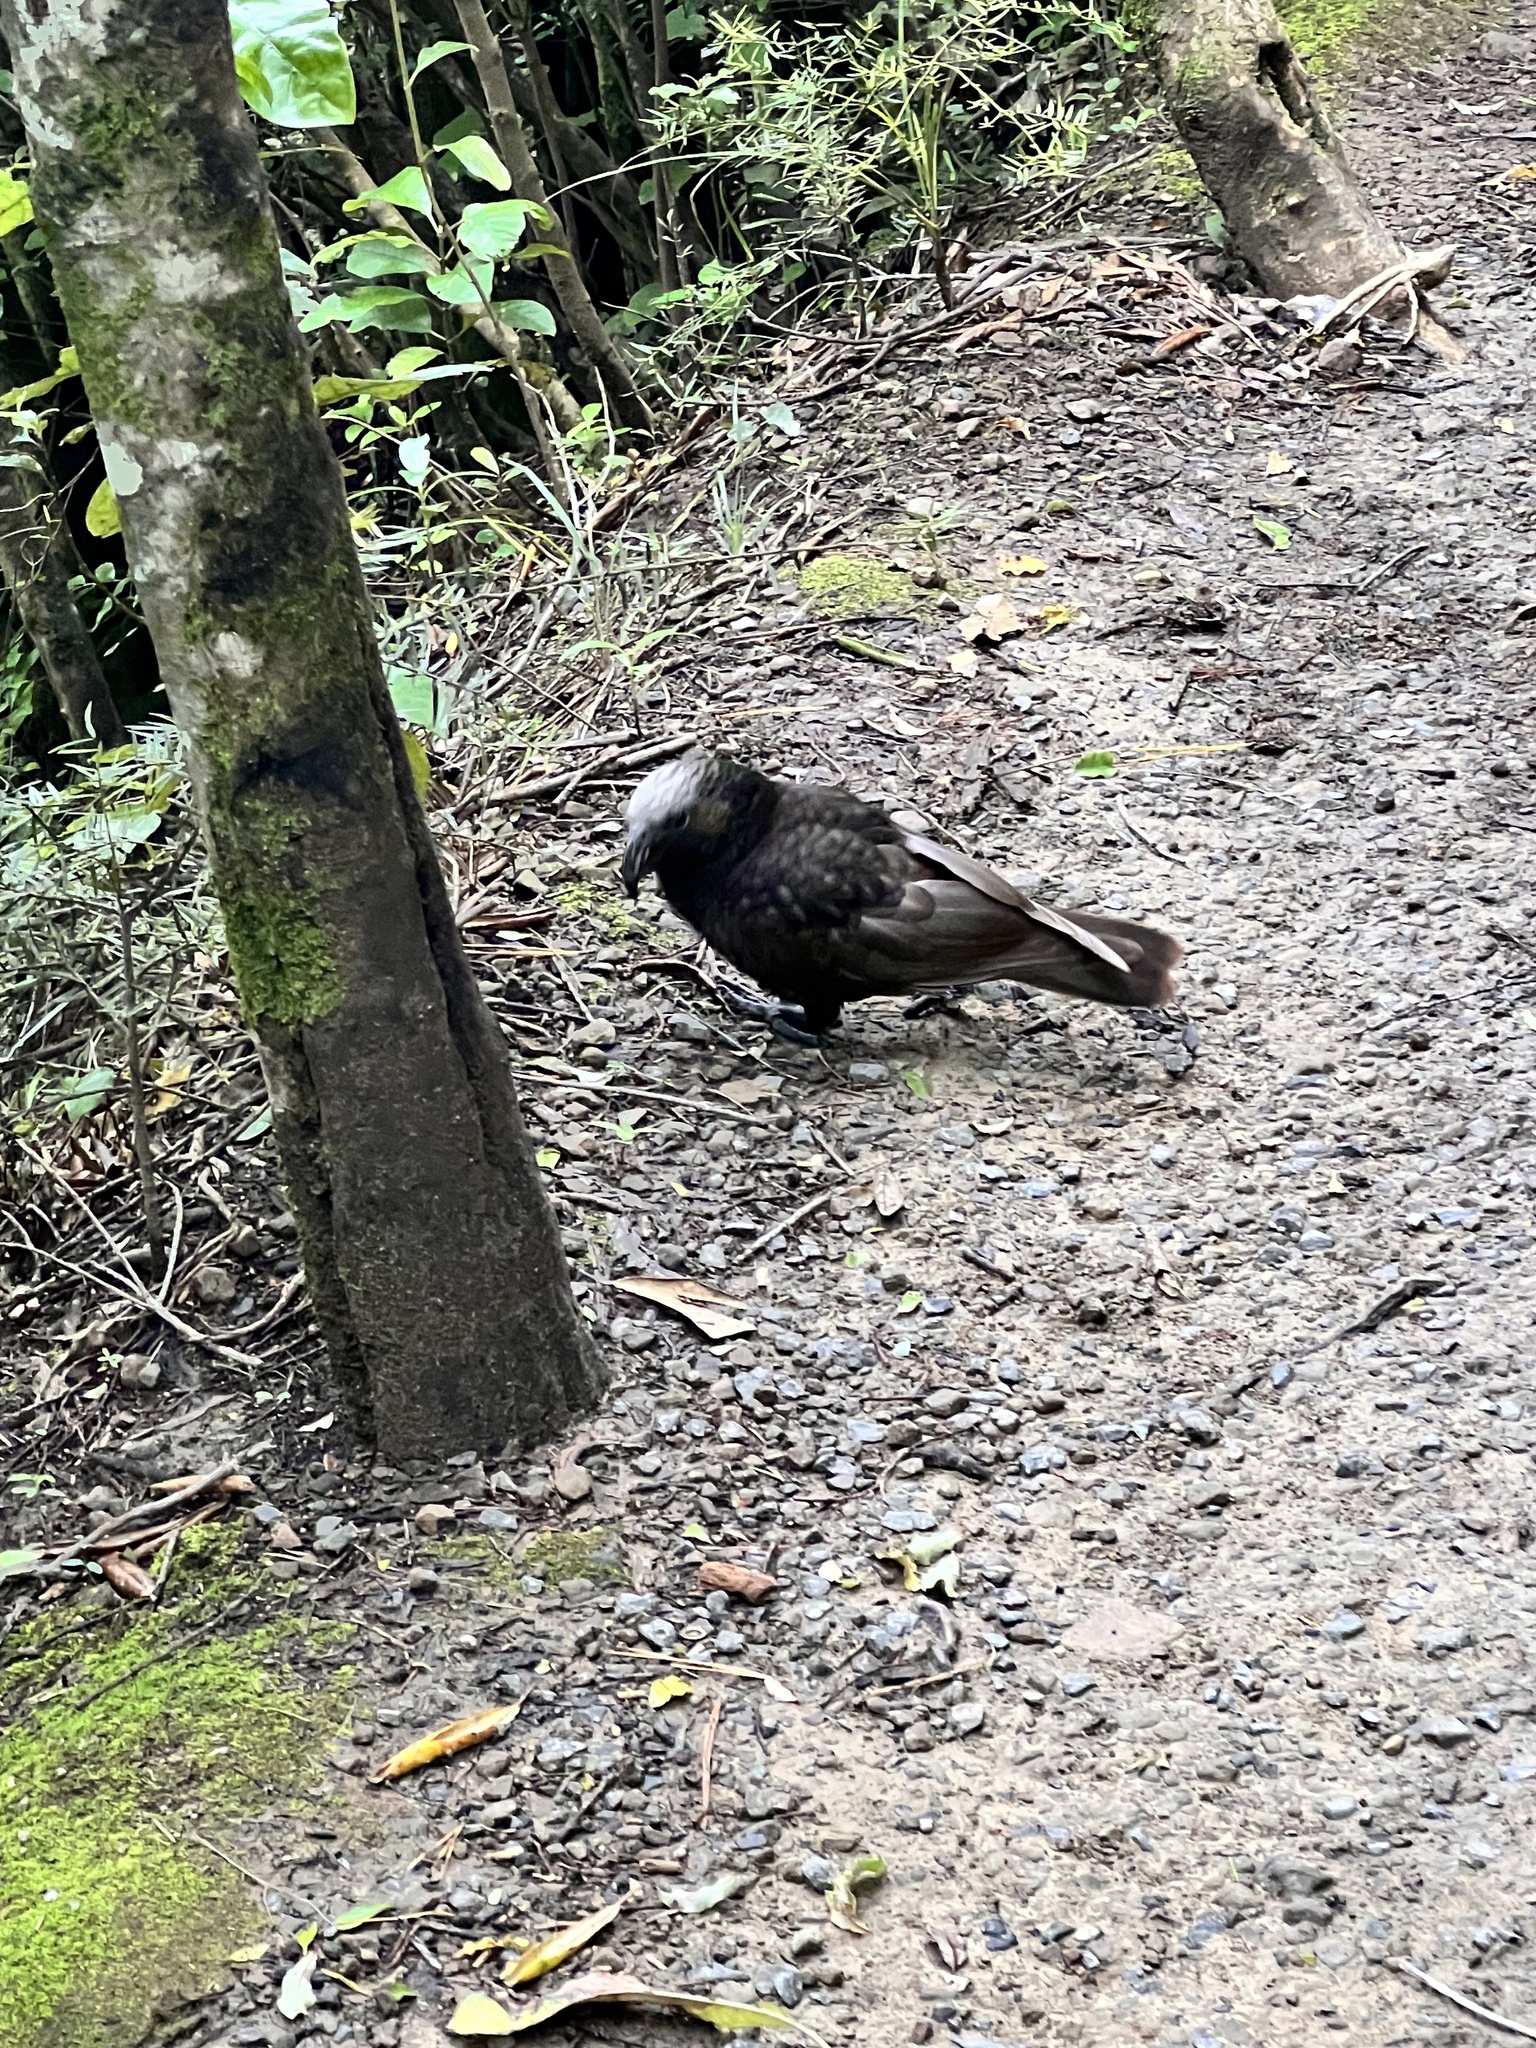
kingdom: Animalia
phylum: Chordata
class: Aves
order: Psittaciformes
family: Psittacidae
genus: Nestor
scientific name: Nestor meridionalis
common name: New zealand kaka
